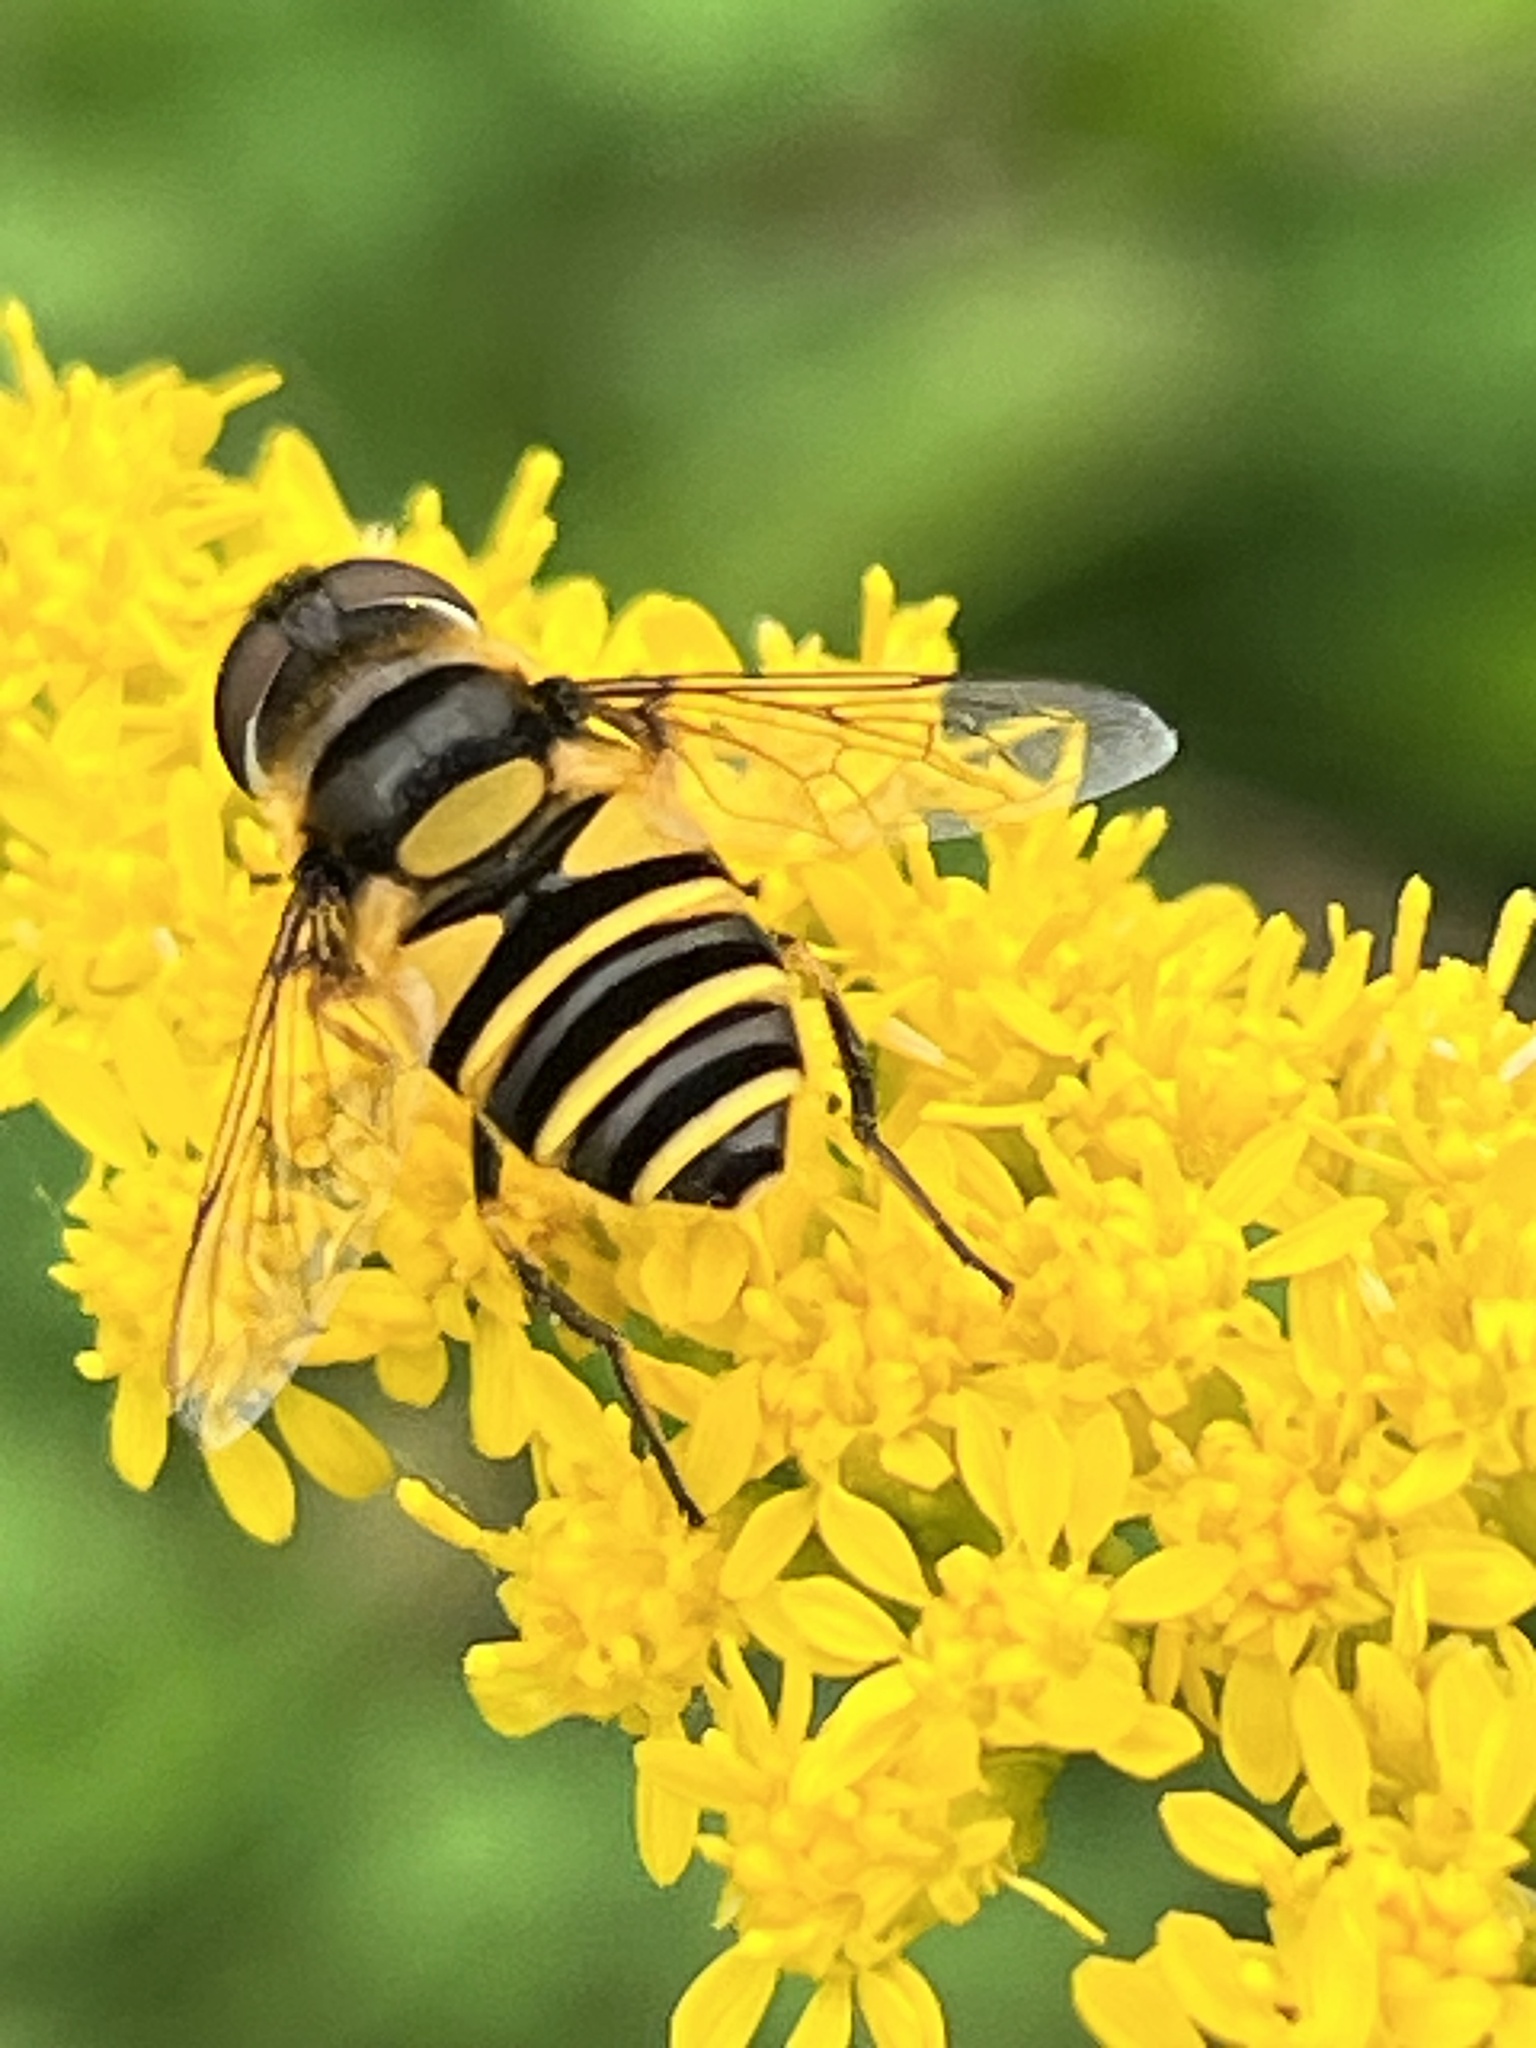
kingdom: Animalia
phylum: Arthropoda
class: Insecta
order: Diptera
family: Syrphidae
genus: Eristalis
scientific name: Eristalis transversa
